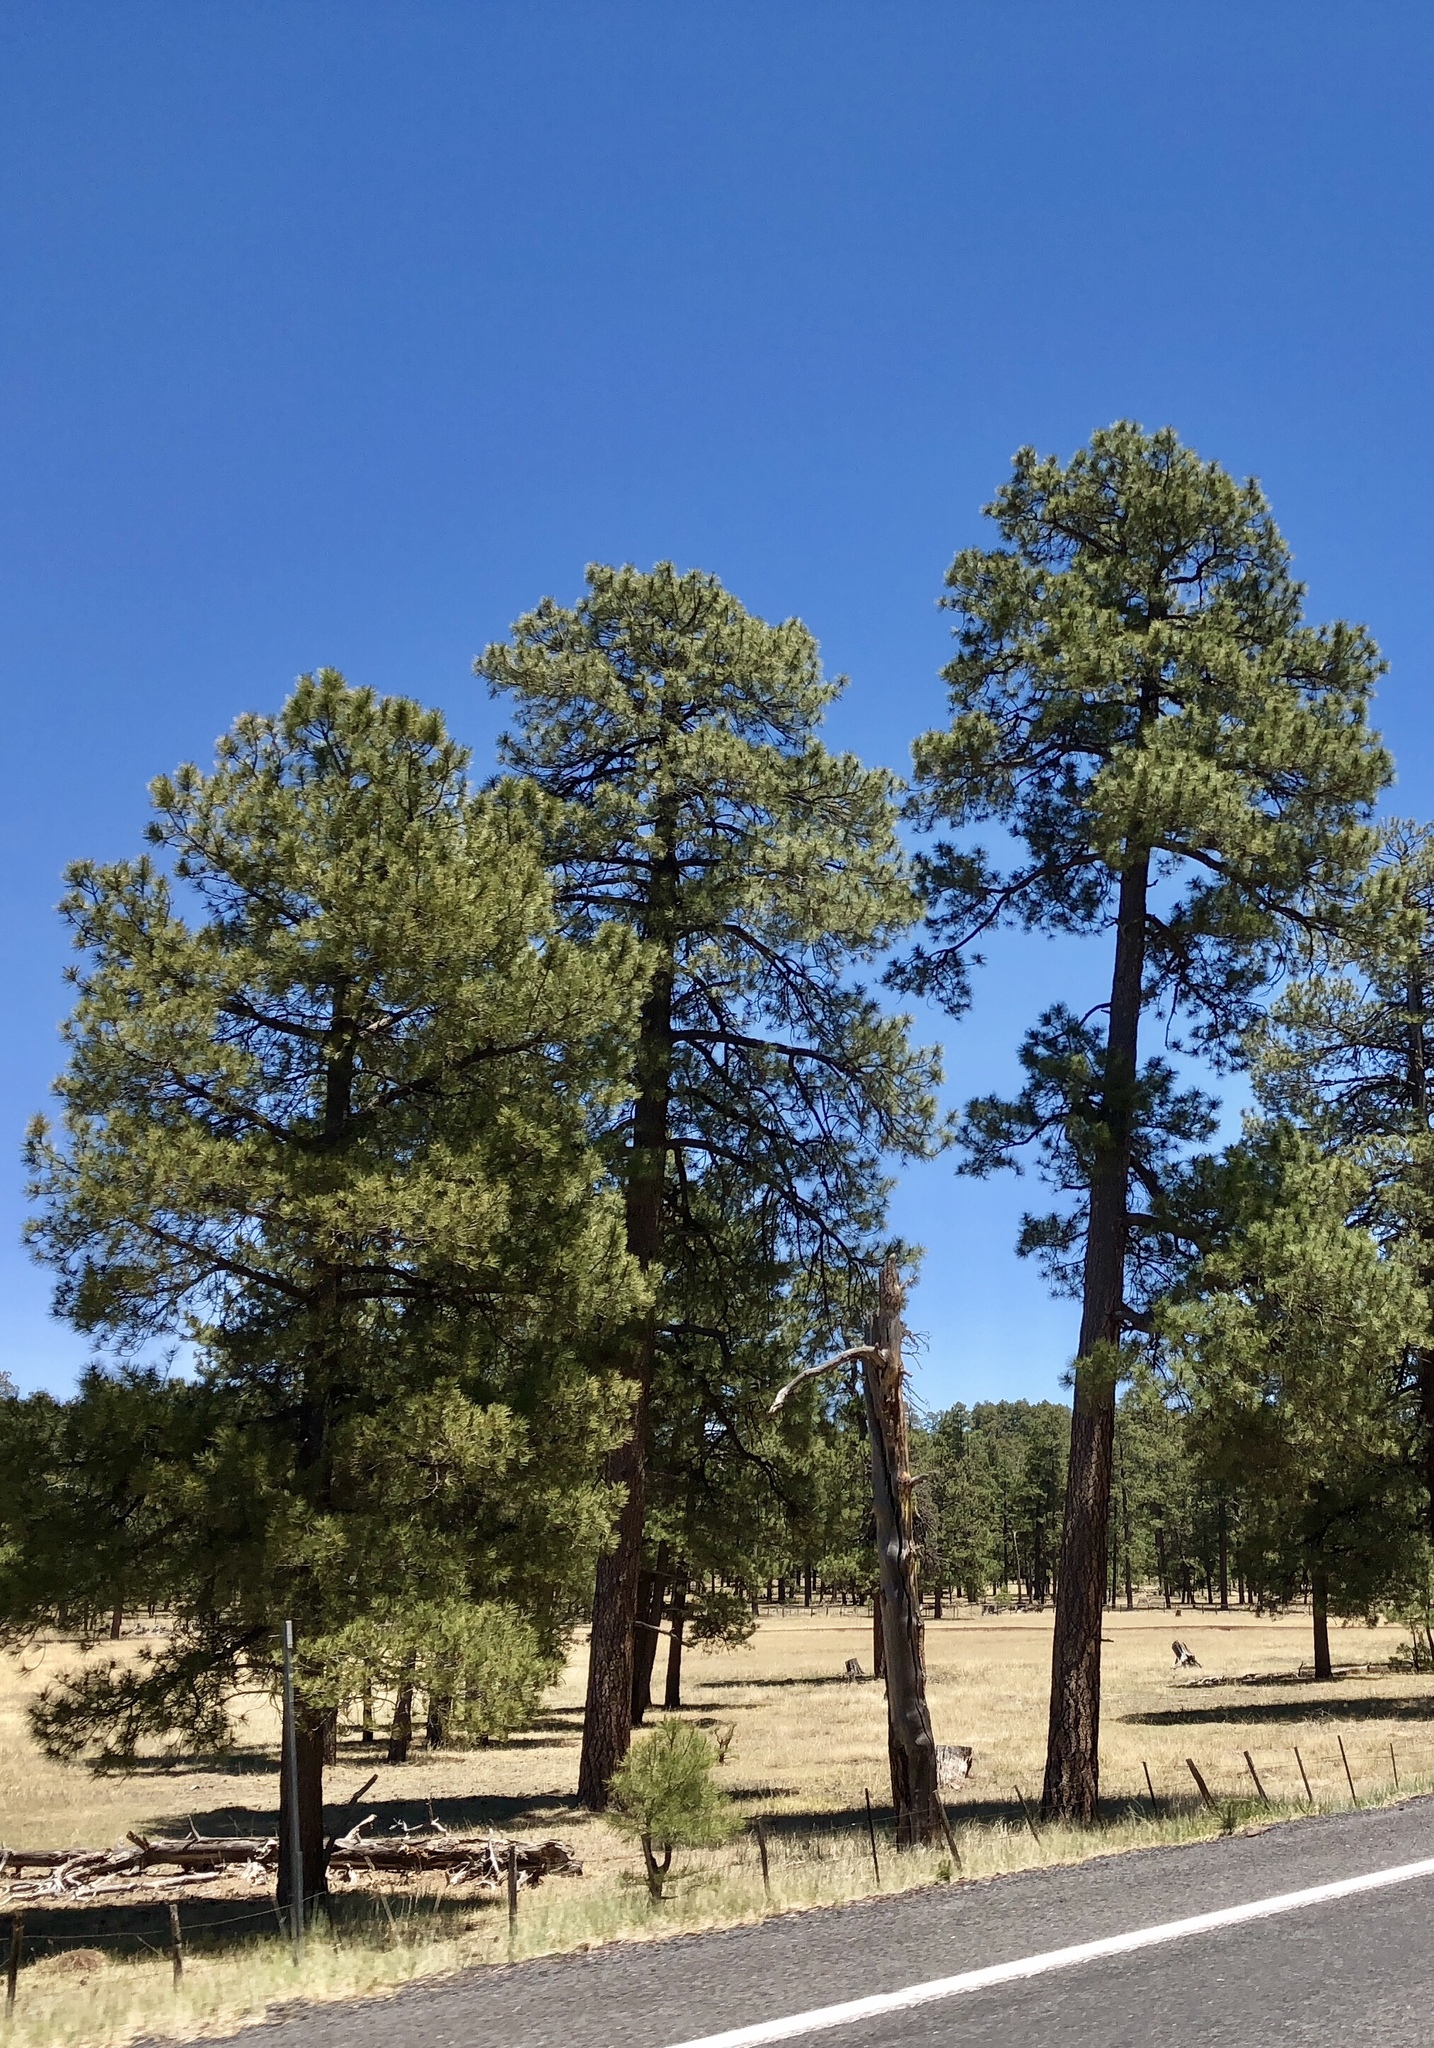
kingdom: Plantae
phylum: Tracheophyta
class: Pinopsida
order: Pinales
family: Pinaceae
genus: Pinus
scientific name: Pinus ponderosa
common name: Western yellow-pine
